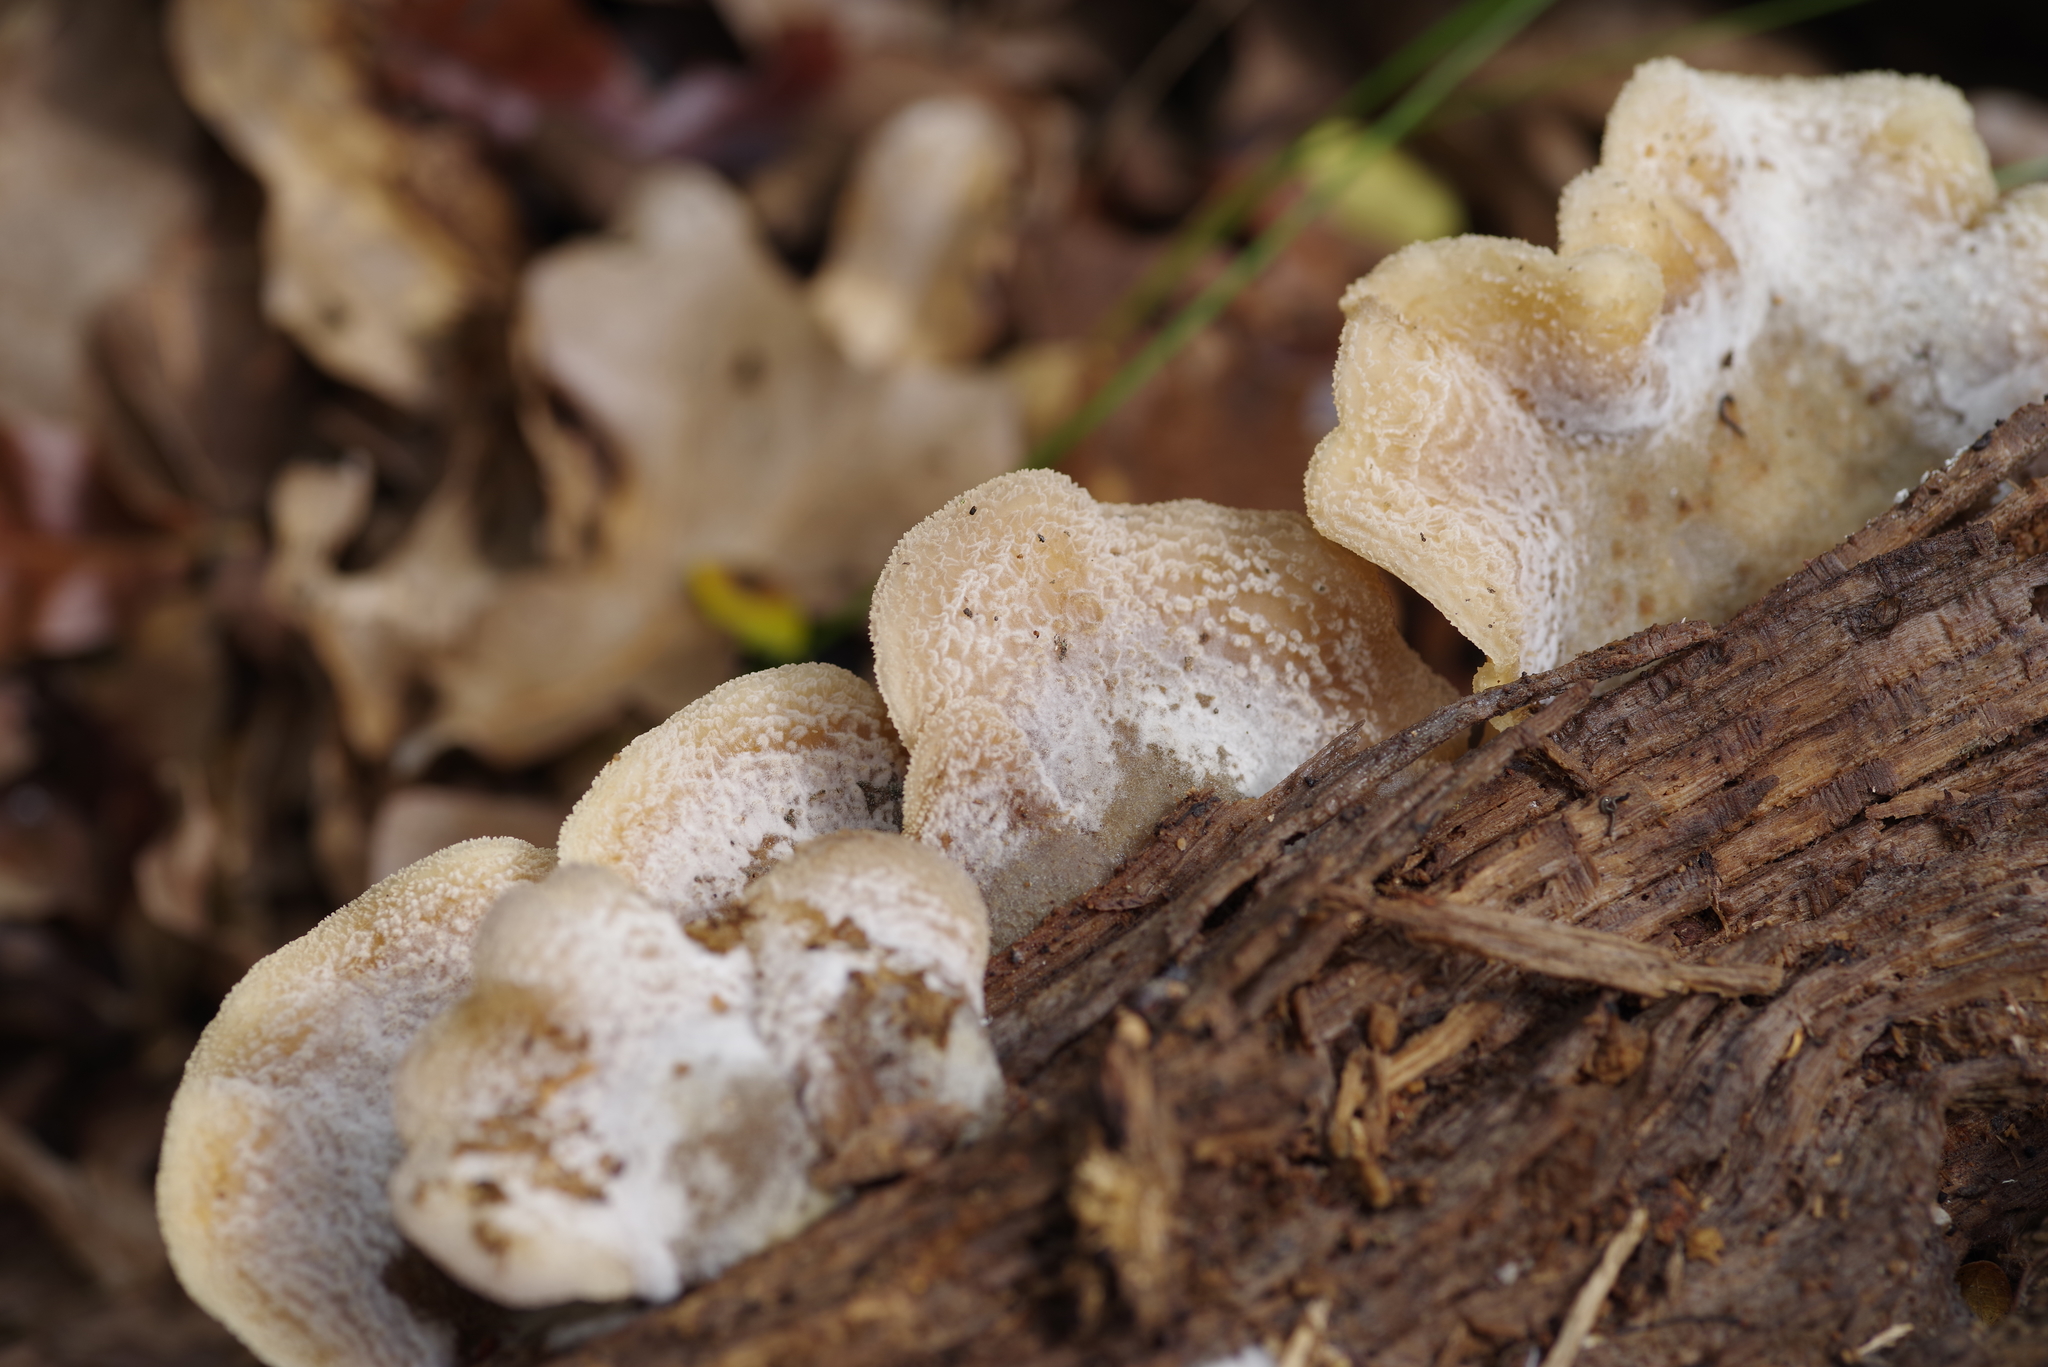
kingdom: Fungi
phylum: Basidiomycota
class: Agaricomycetes
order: Agaricales
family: Pleurotaceae
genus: Hohenbuehelia
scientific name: Hohenbuehelia mastrucata
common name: Woolly oyster
